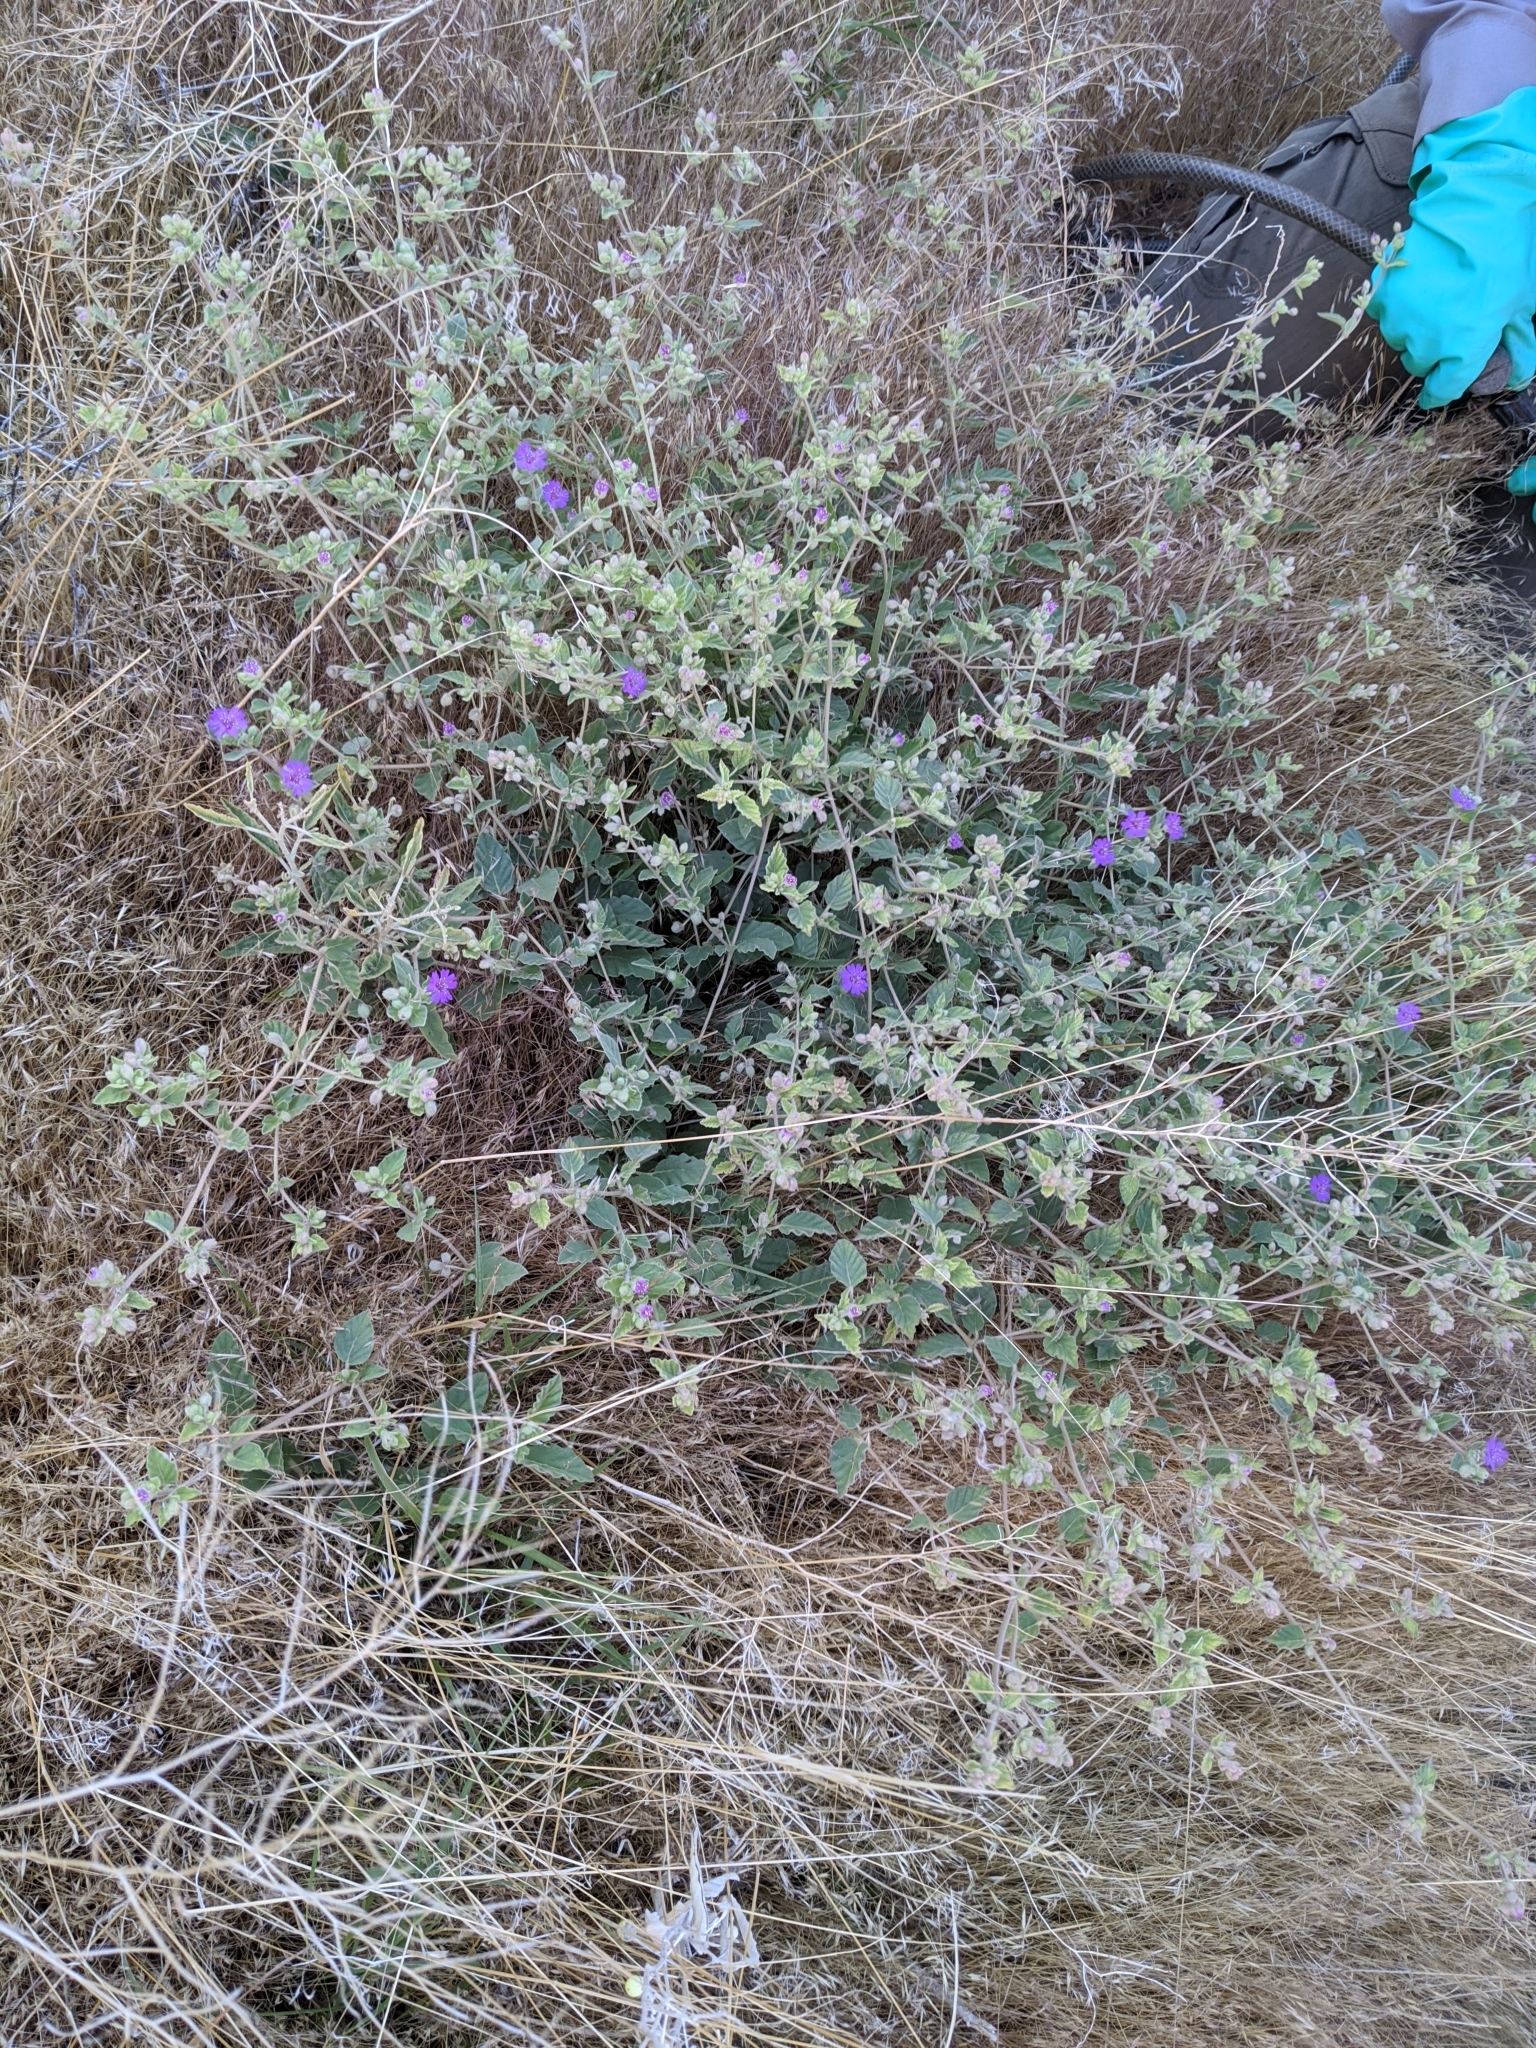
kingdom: Plantae
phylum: Tracheophyta
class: Magnoliopsida
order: Caryophyllales
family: Nyctaginaceae
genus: Allionia
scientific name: Allionia incarnata
